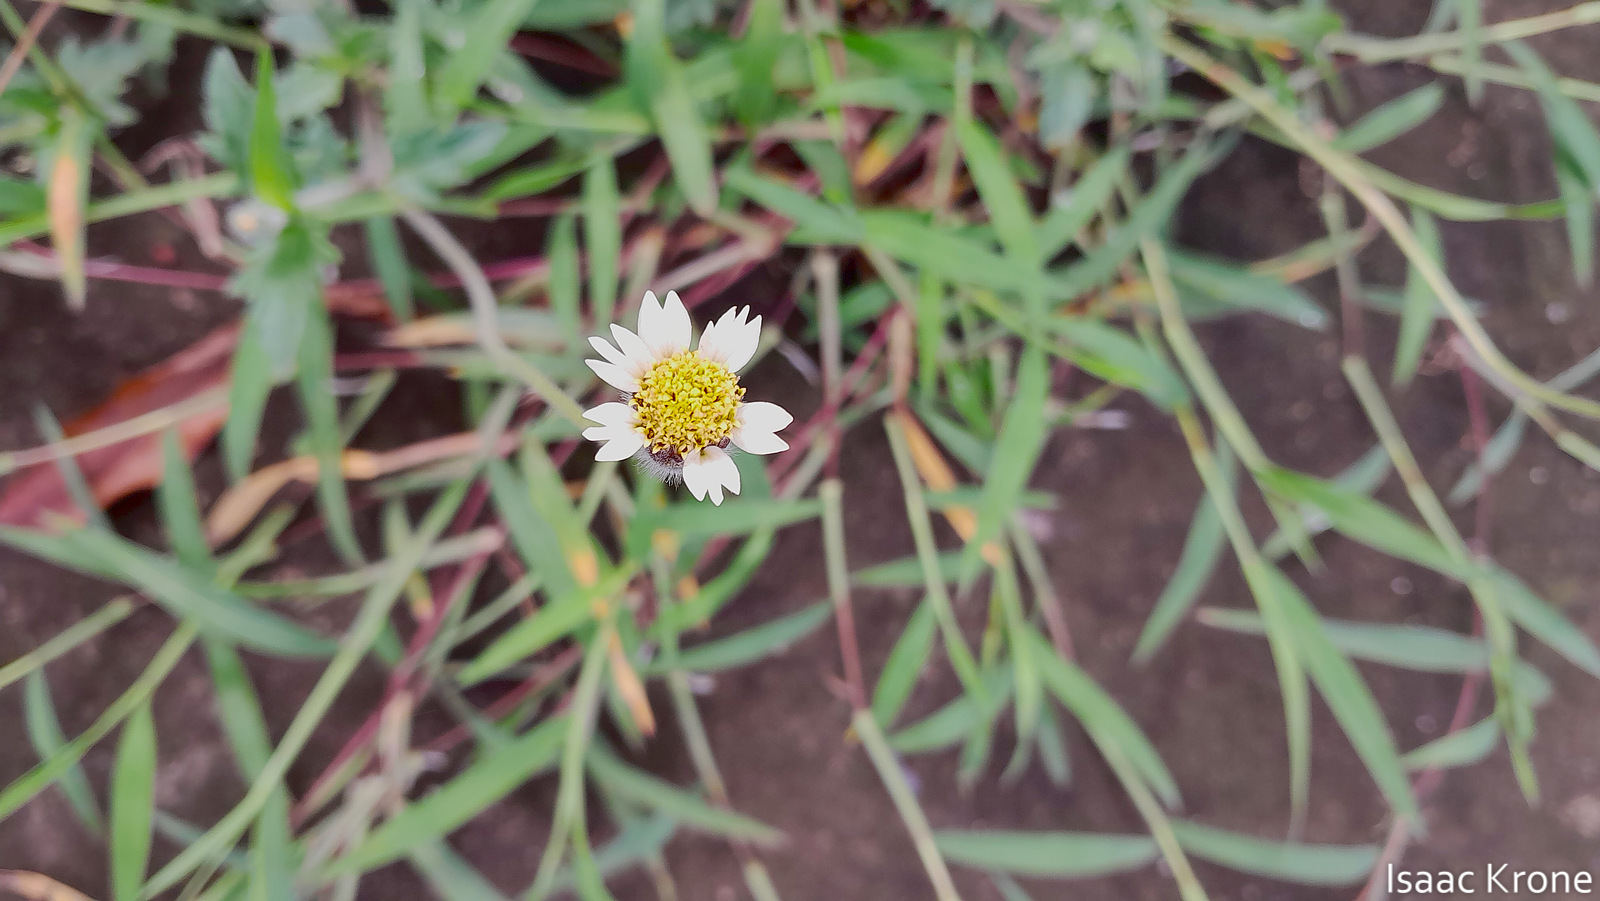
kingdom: Plantae
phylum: Tracheophyta
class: Magnoliopsida
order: Asterales
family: Asteraceae
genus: Tridax
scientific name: Tridax procumbens
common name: Coatbuttons
